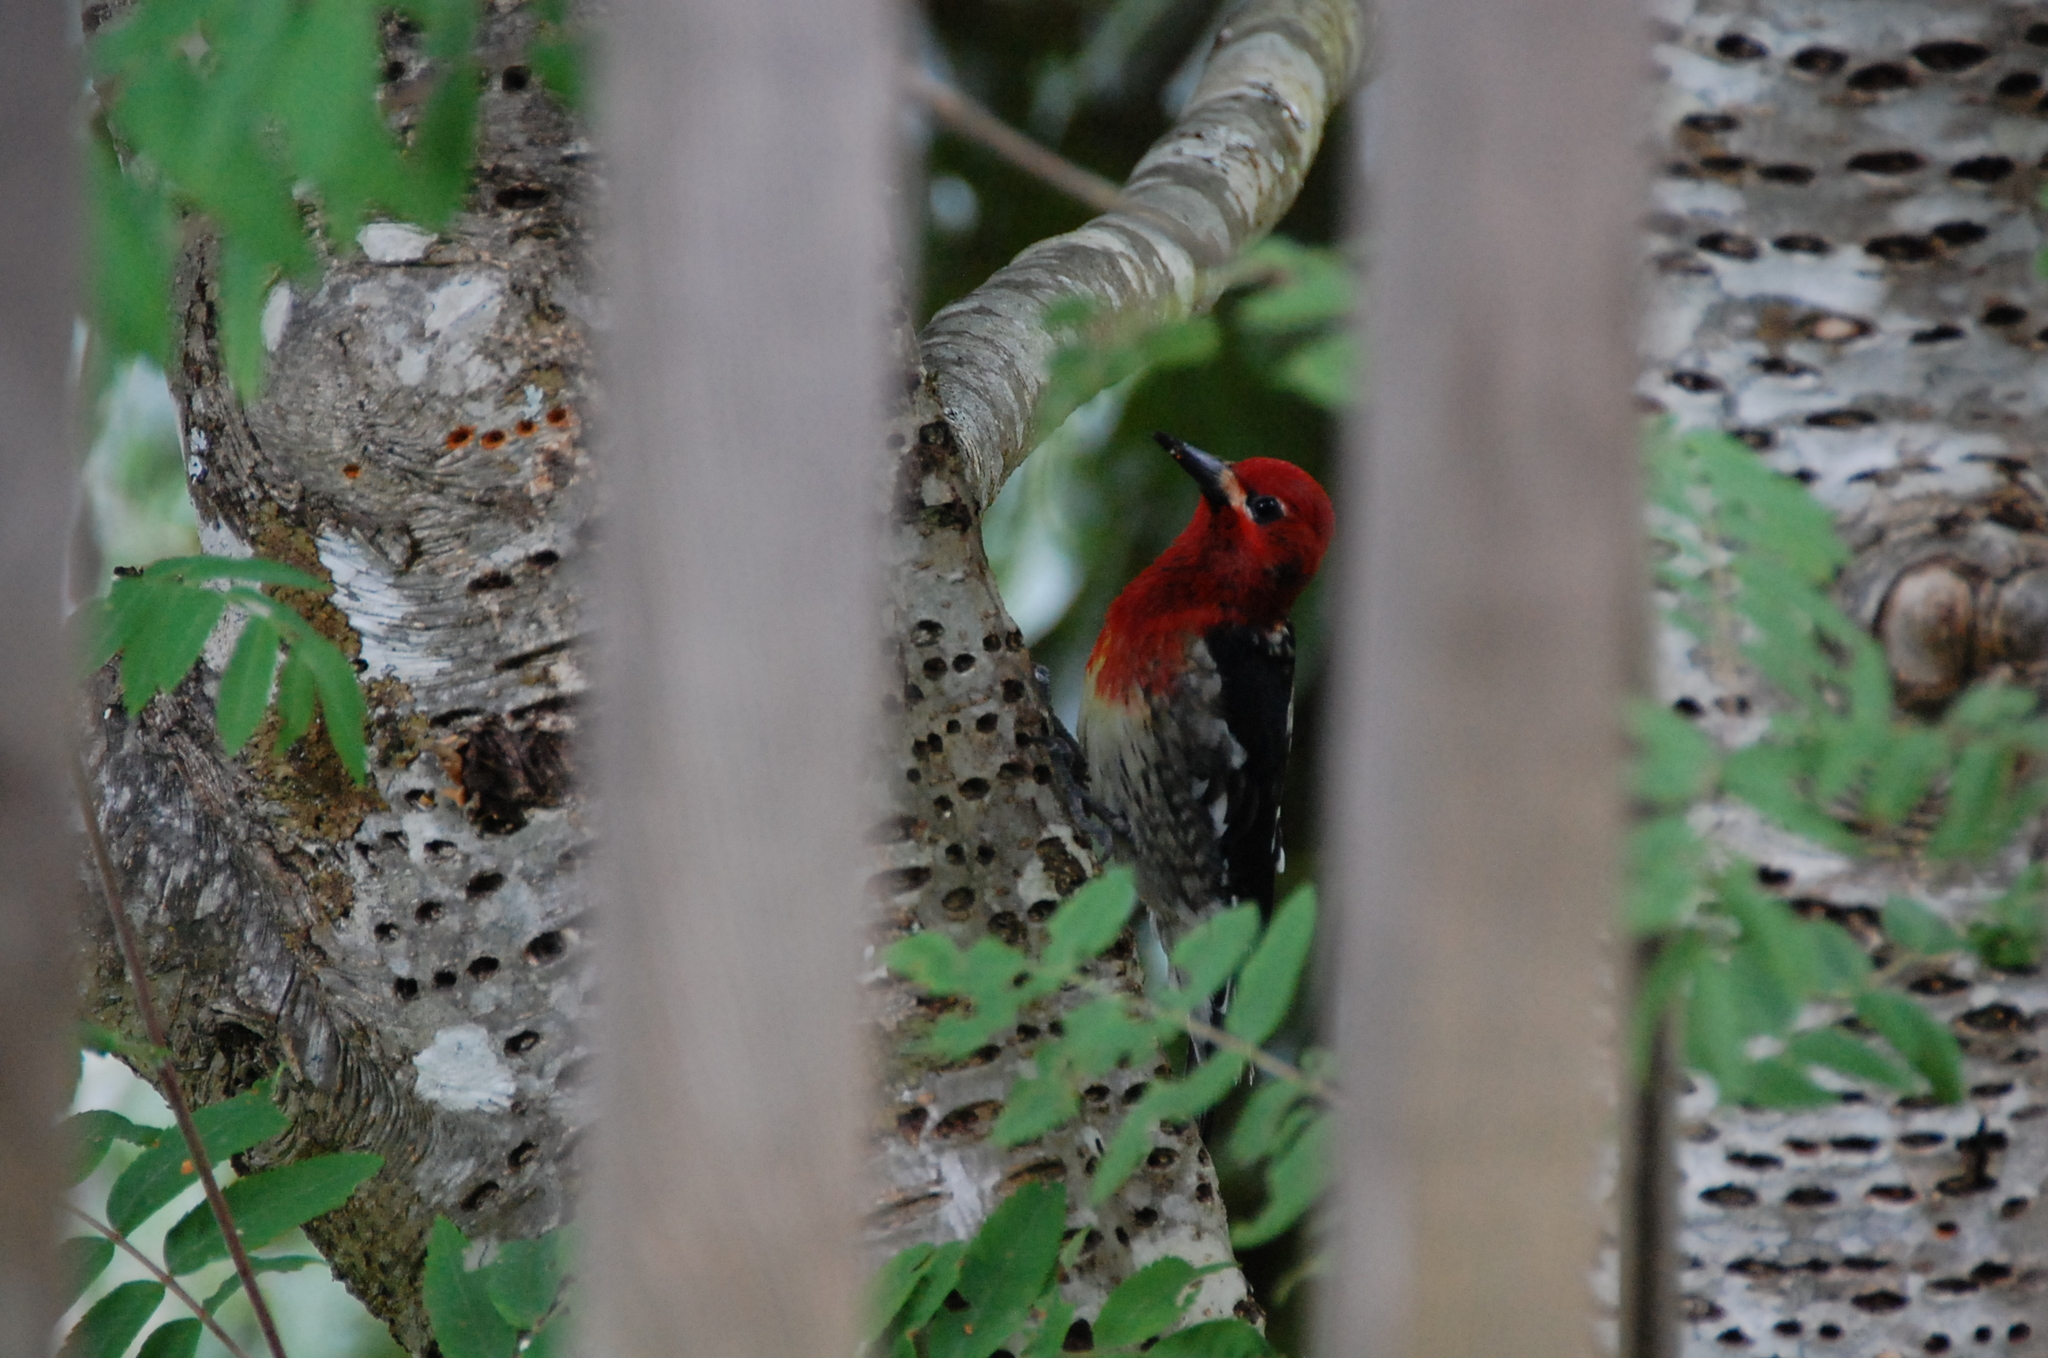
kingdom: Animalia
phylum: Chordata
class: Aves
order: Piciformes
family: Picidae
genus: Sphyrapicus
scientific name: Sphyrapicus ruber
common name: Red-breasted sapsucker
